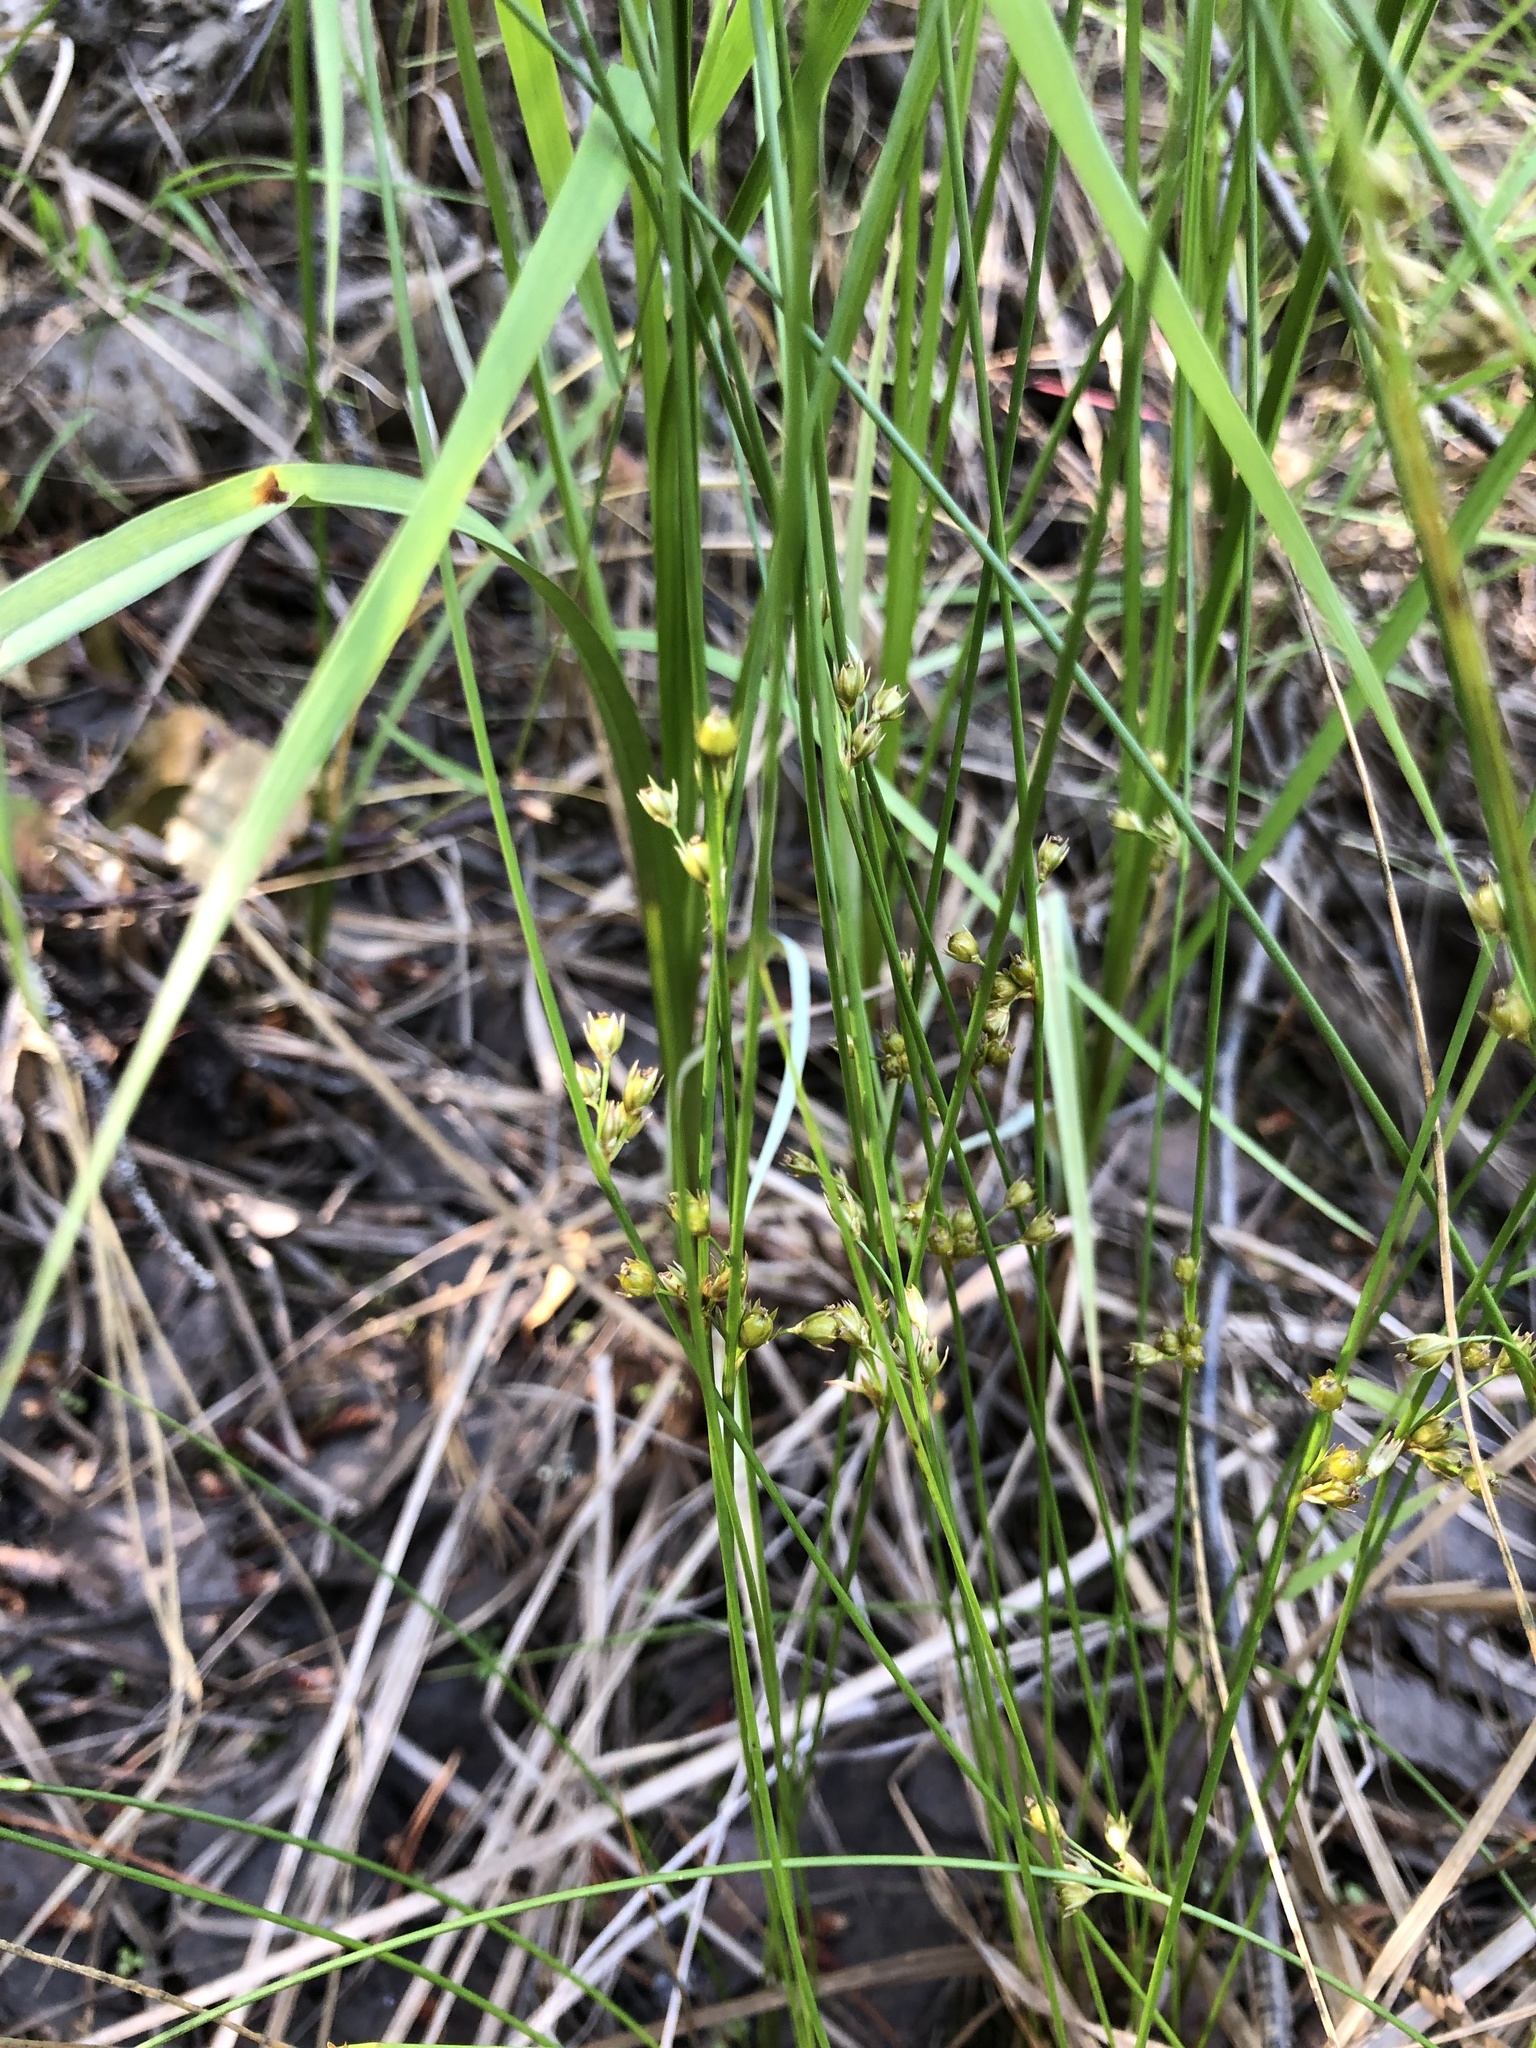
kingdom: Plantae
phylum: Tracheophyta
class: Liliopsida
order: Poales
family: Juncaceae
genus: Juncus
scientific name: Juncus filiformis
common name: Thread rush
